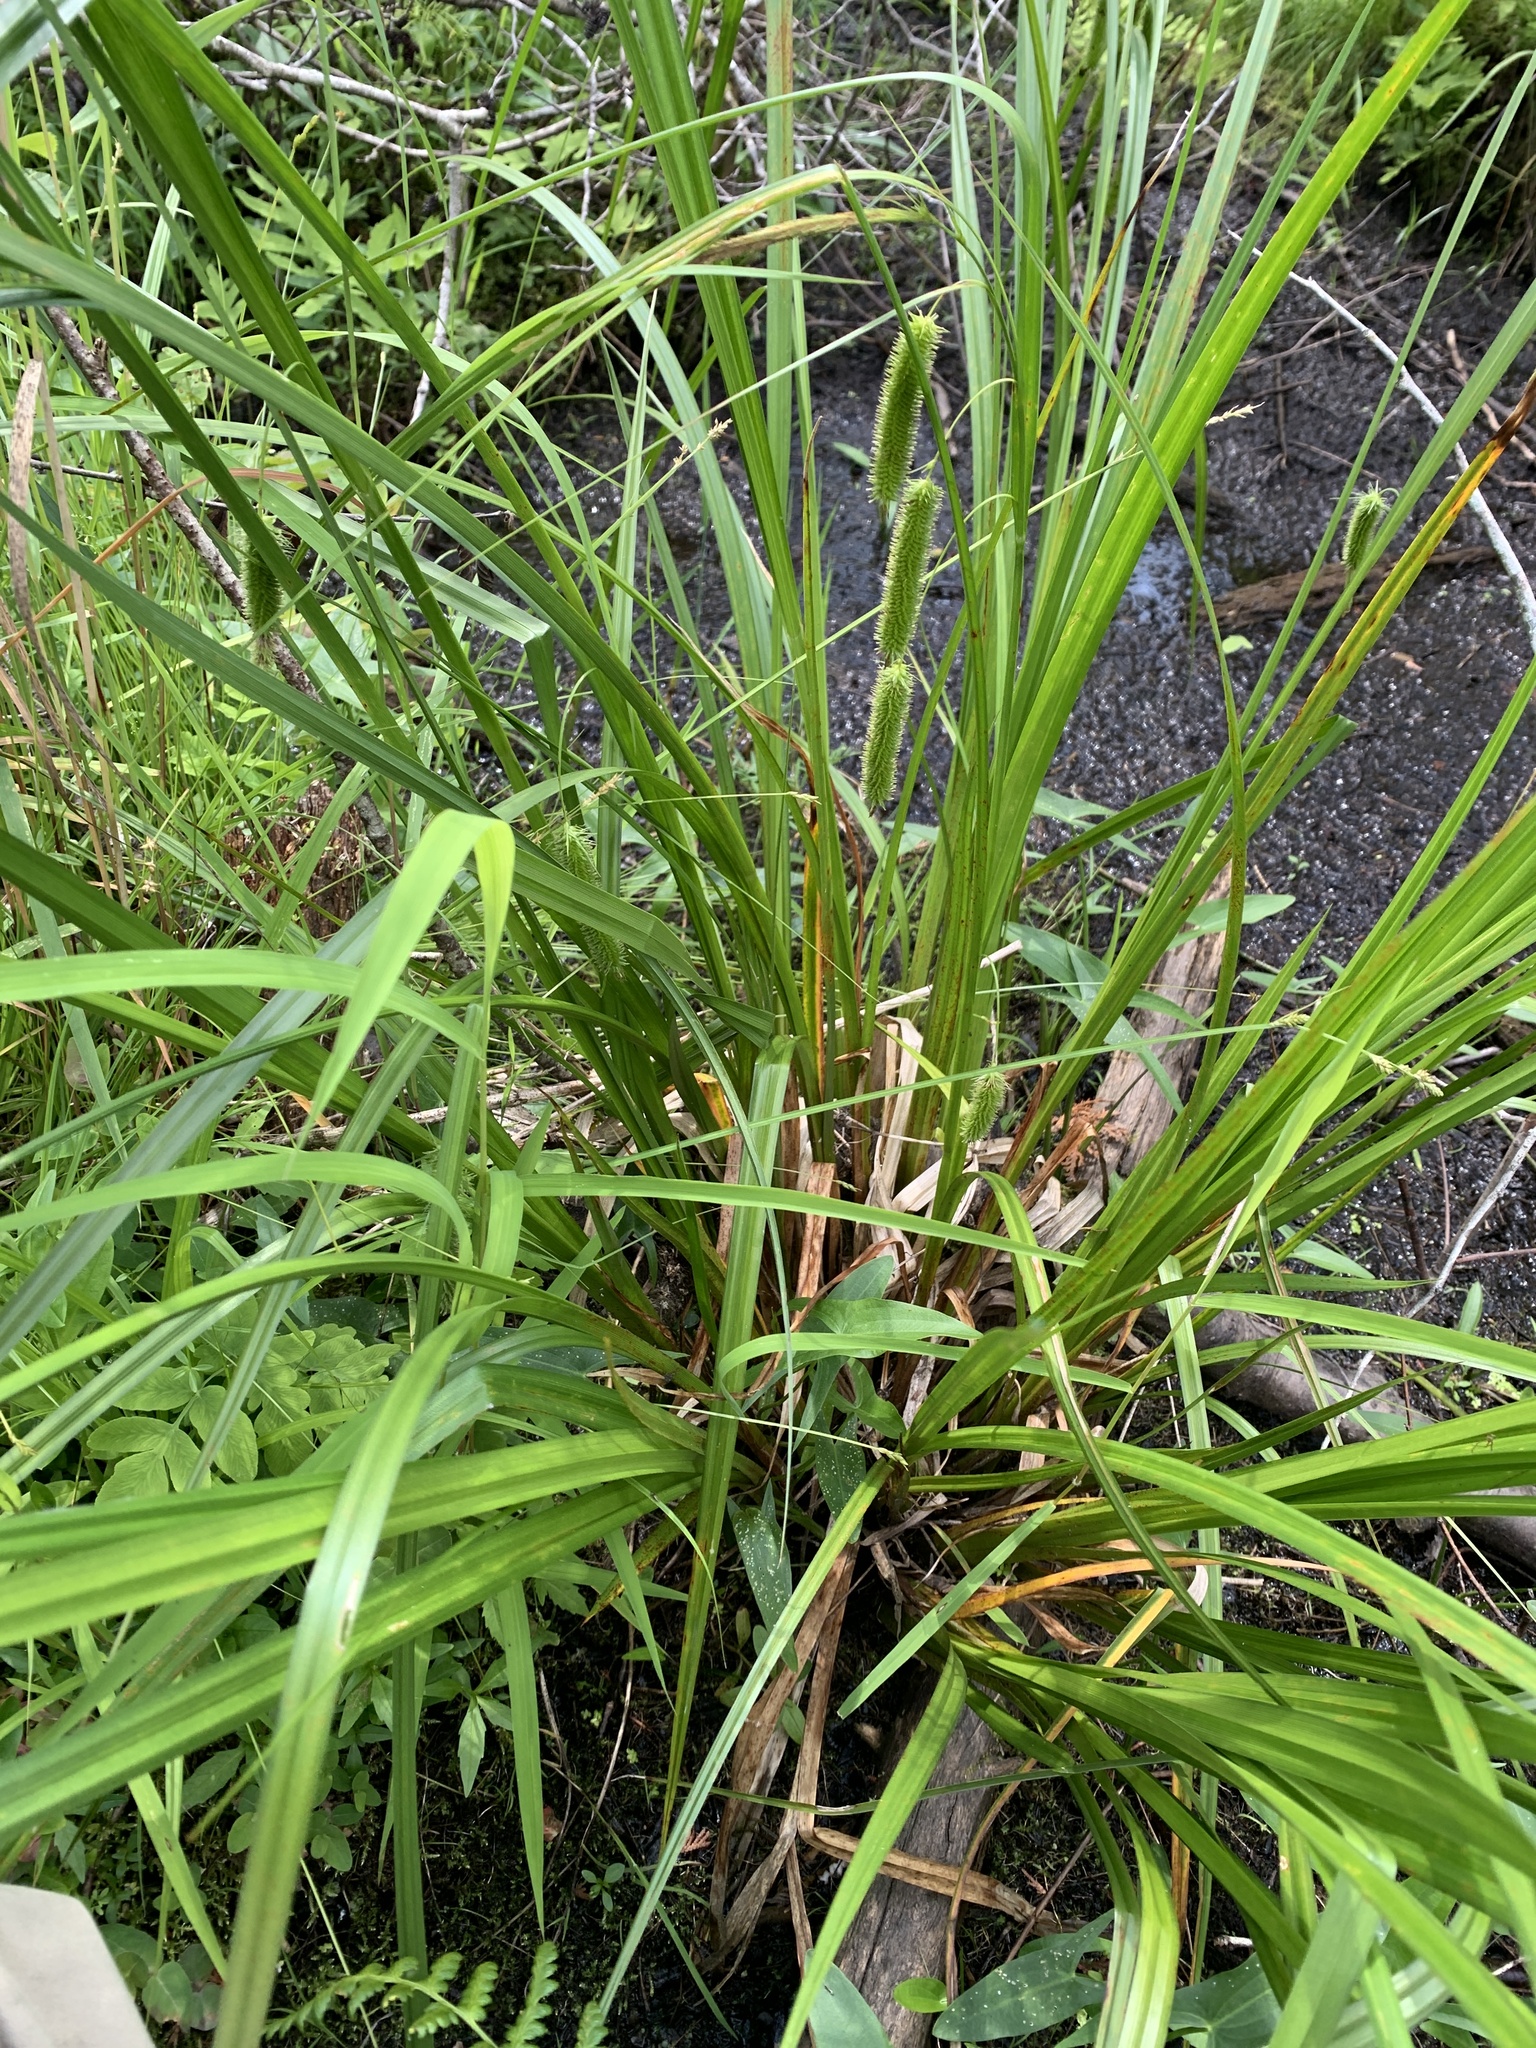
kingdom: Plantae
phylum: Tracheophyta
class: Liliopsida
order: Poales
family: Cyperaceae
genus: Carex
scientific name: Carex pseudocyperus
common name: Cyperus sedge
